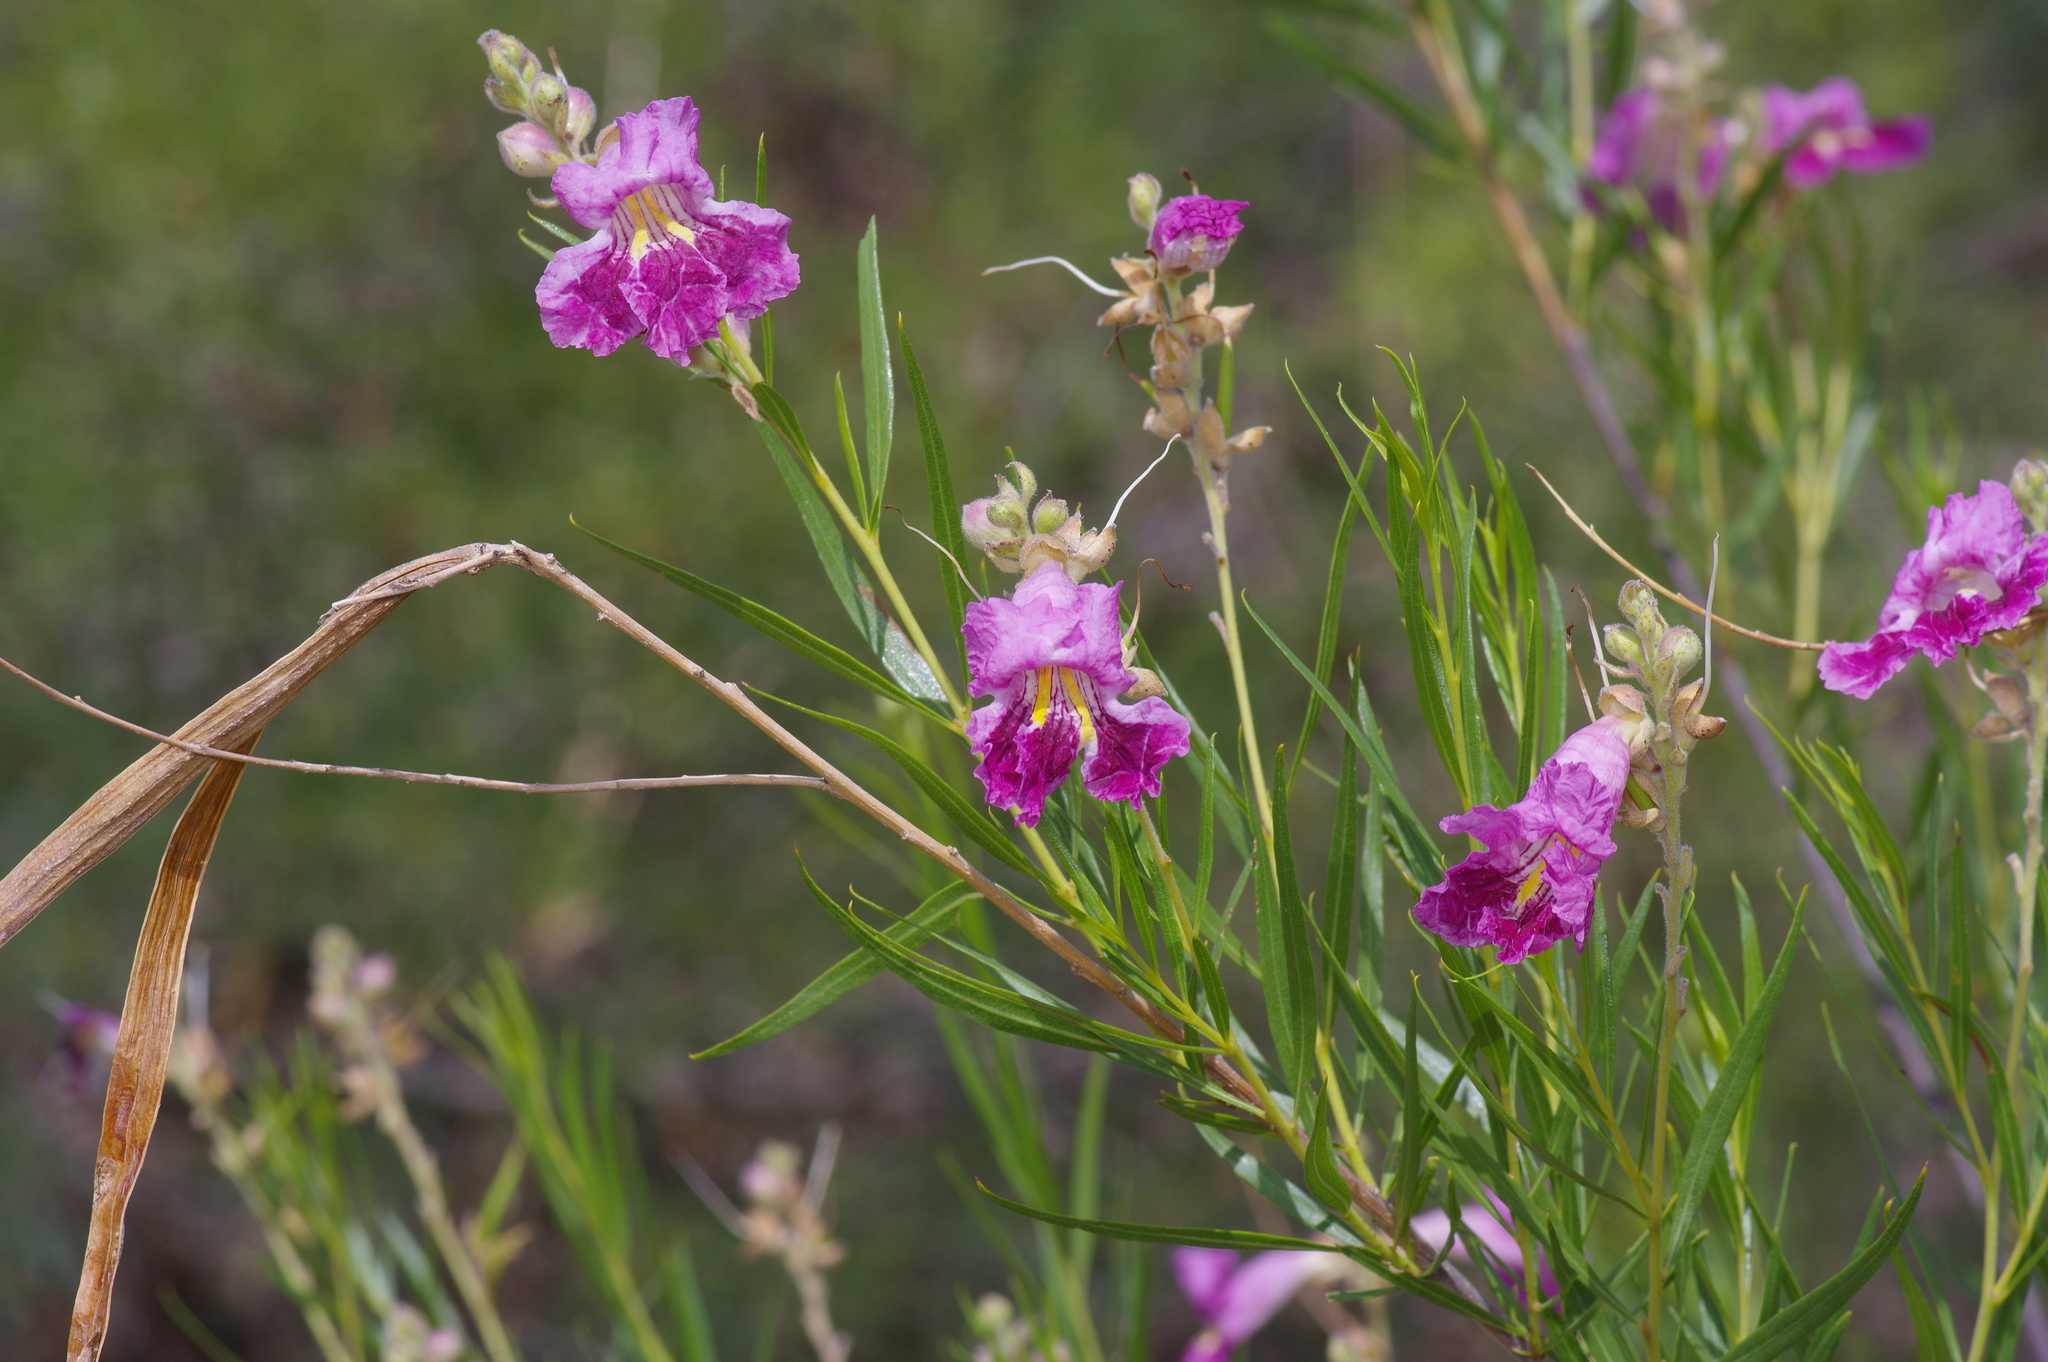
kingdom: Plantae
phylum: Tracheophyta
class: Magnoliopsida
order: Lamiales
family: Bignoniaceae
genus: Chilopsis
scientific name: Chilopsis linearis
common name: Desert-willow
